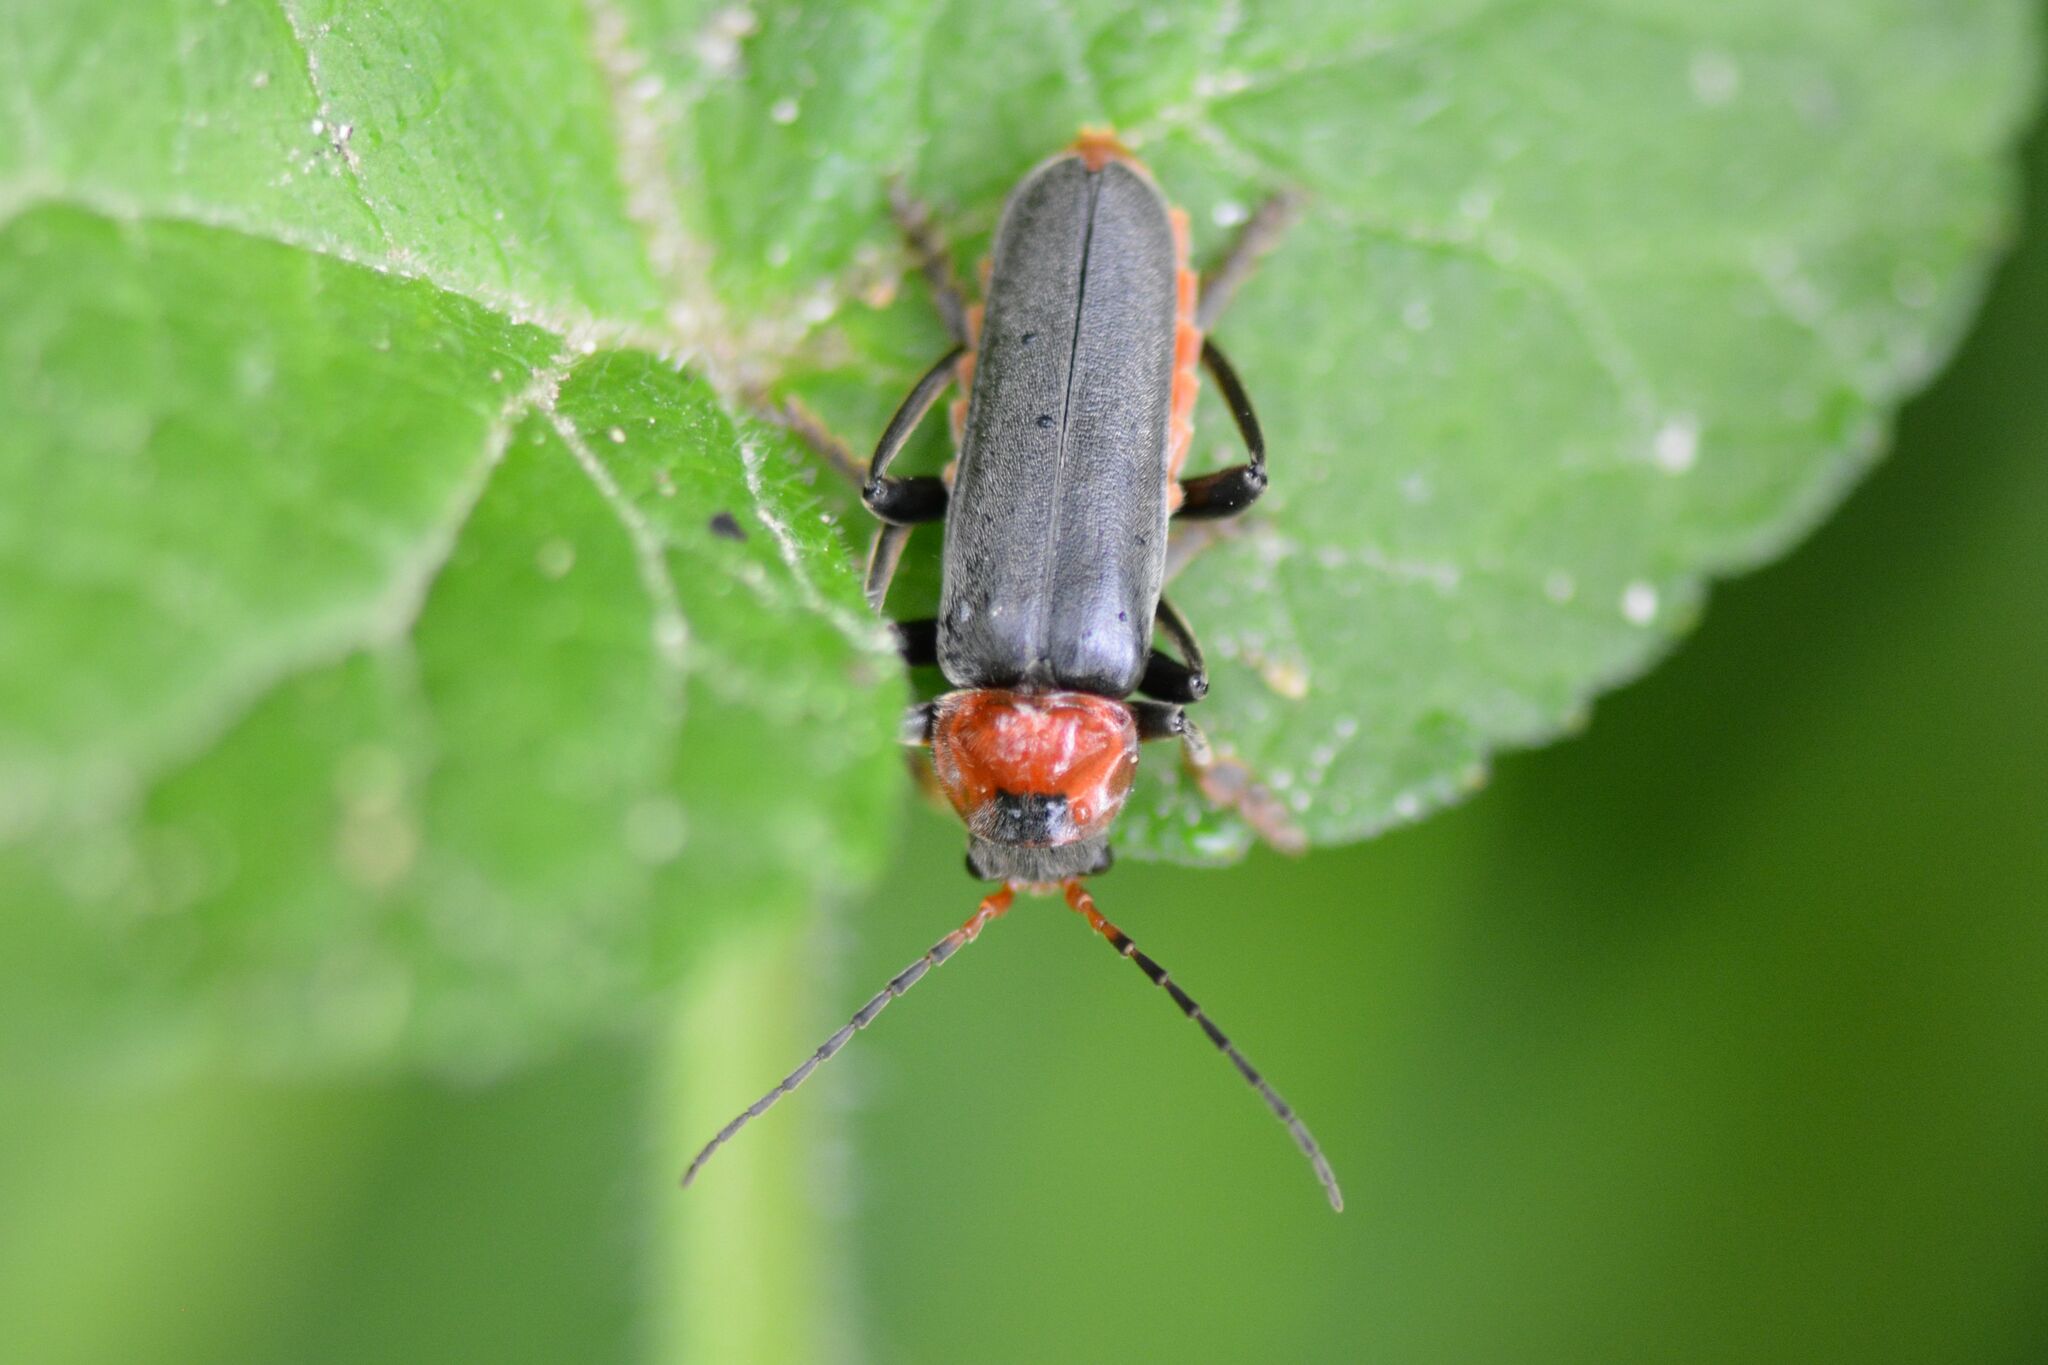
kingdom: Animalia
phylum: Arthropoda
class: Insecta
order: Coleoptera
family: Cantharidae
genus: Cantharis
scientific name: Cantharis fusca
